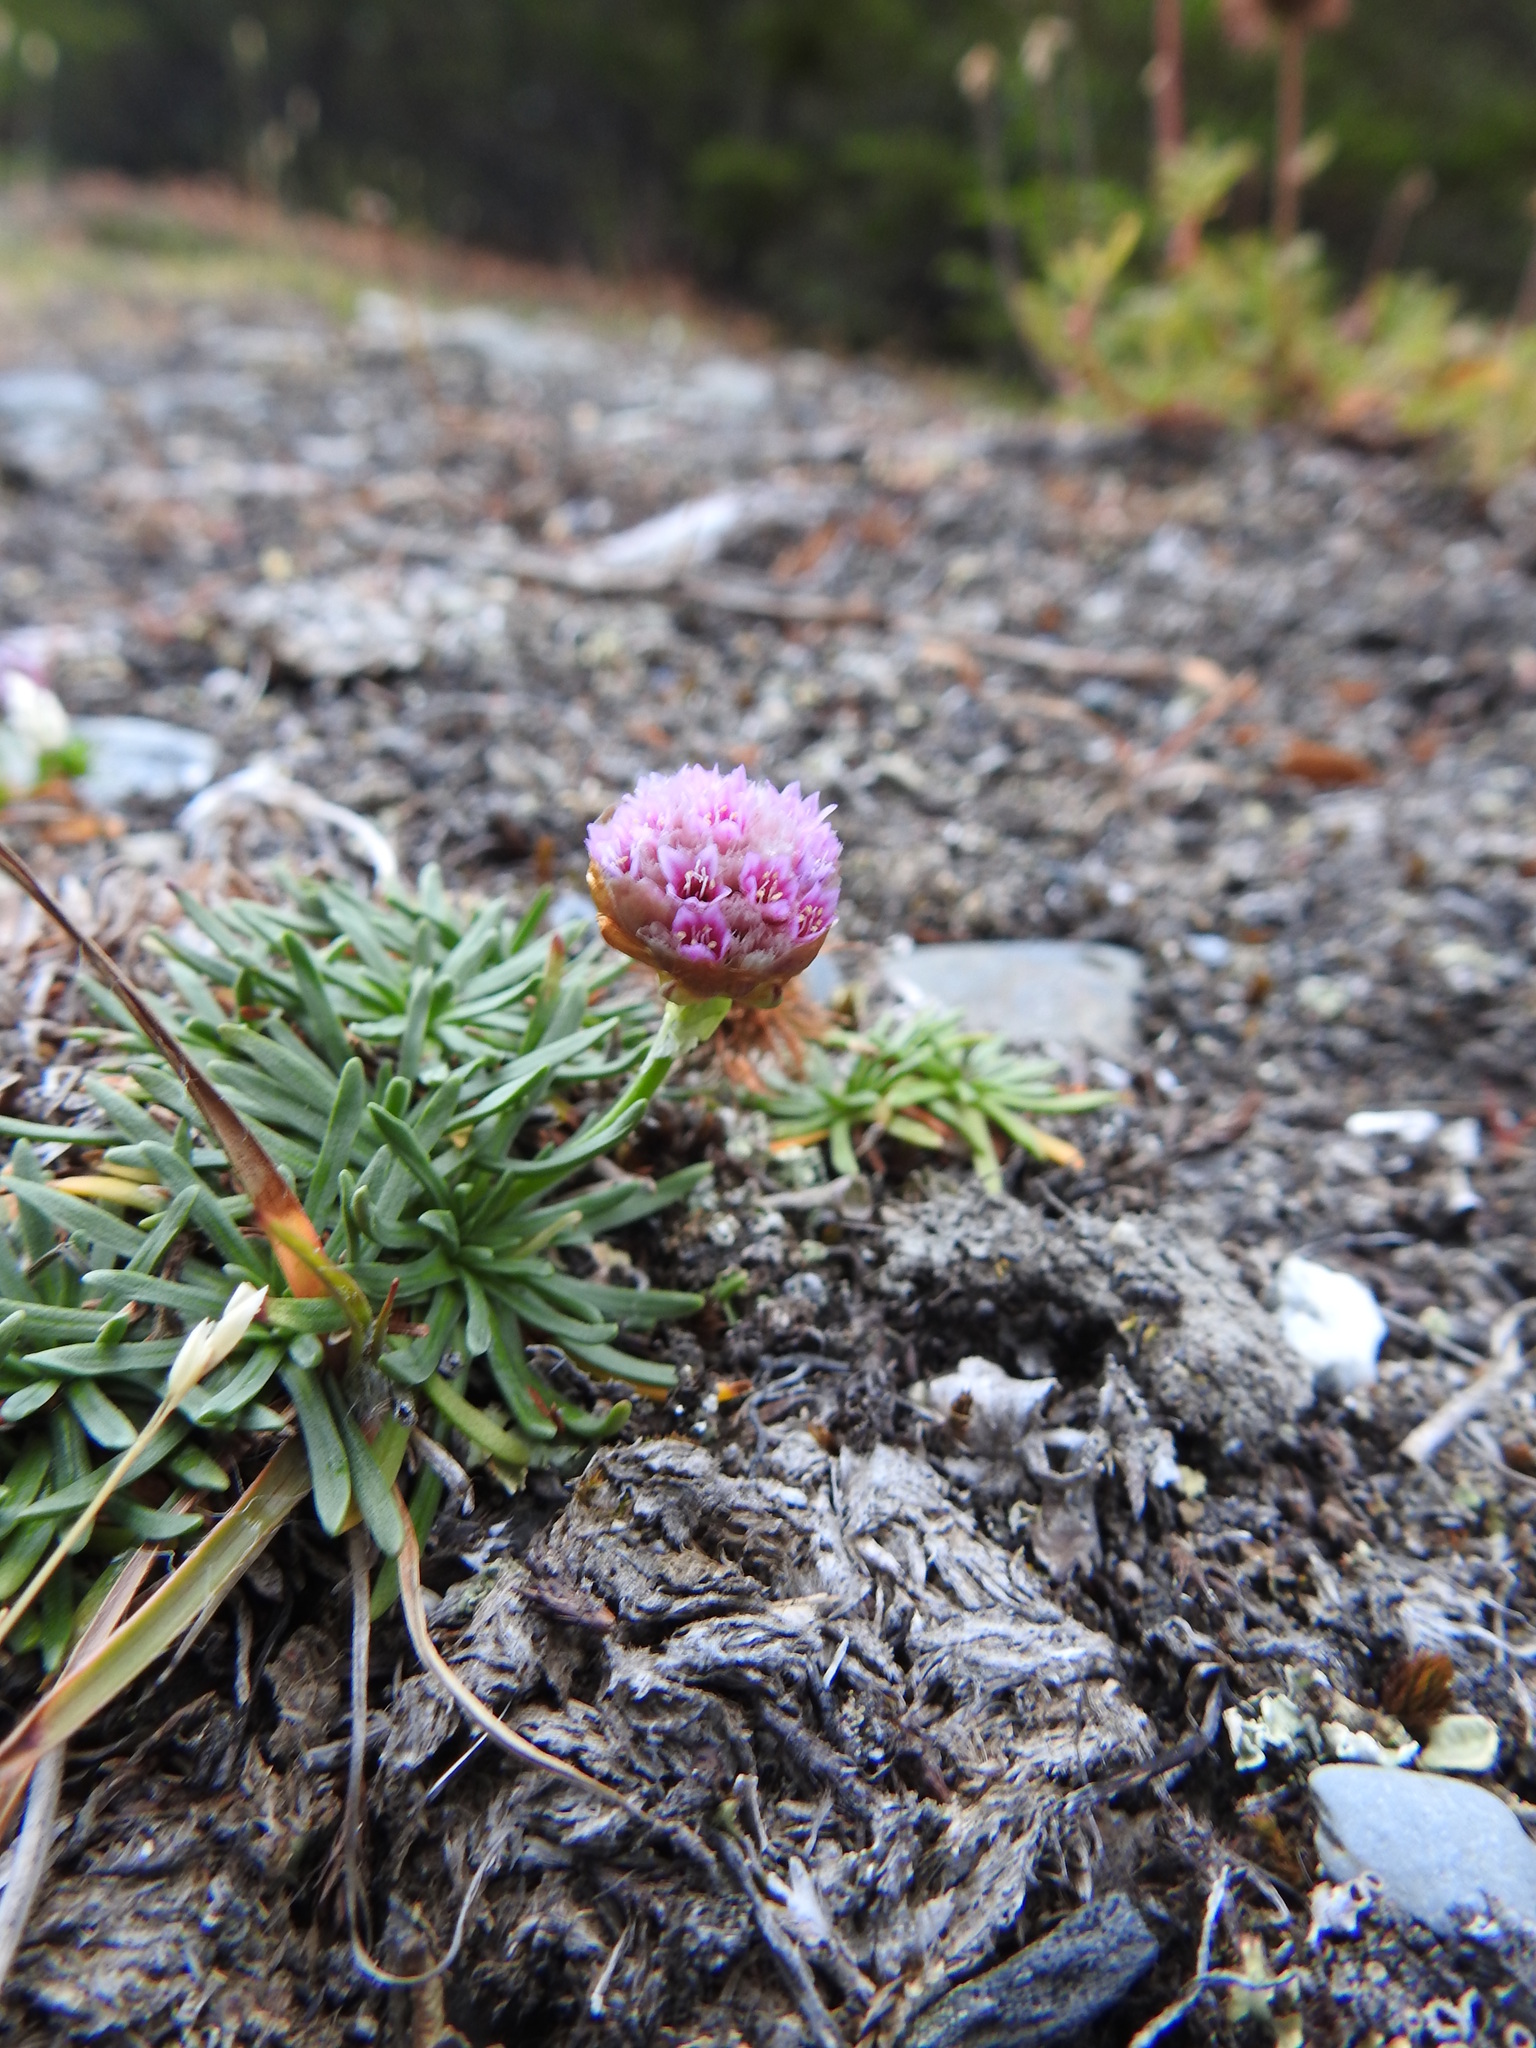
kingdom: Plantae
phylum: Tracheophyta
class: Magnoliopsida
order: Caryophyllales
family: Plumbaginaceae
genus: Armeria
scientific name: Armeria curvifolia
